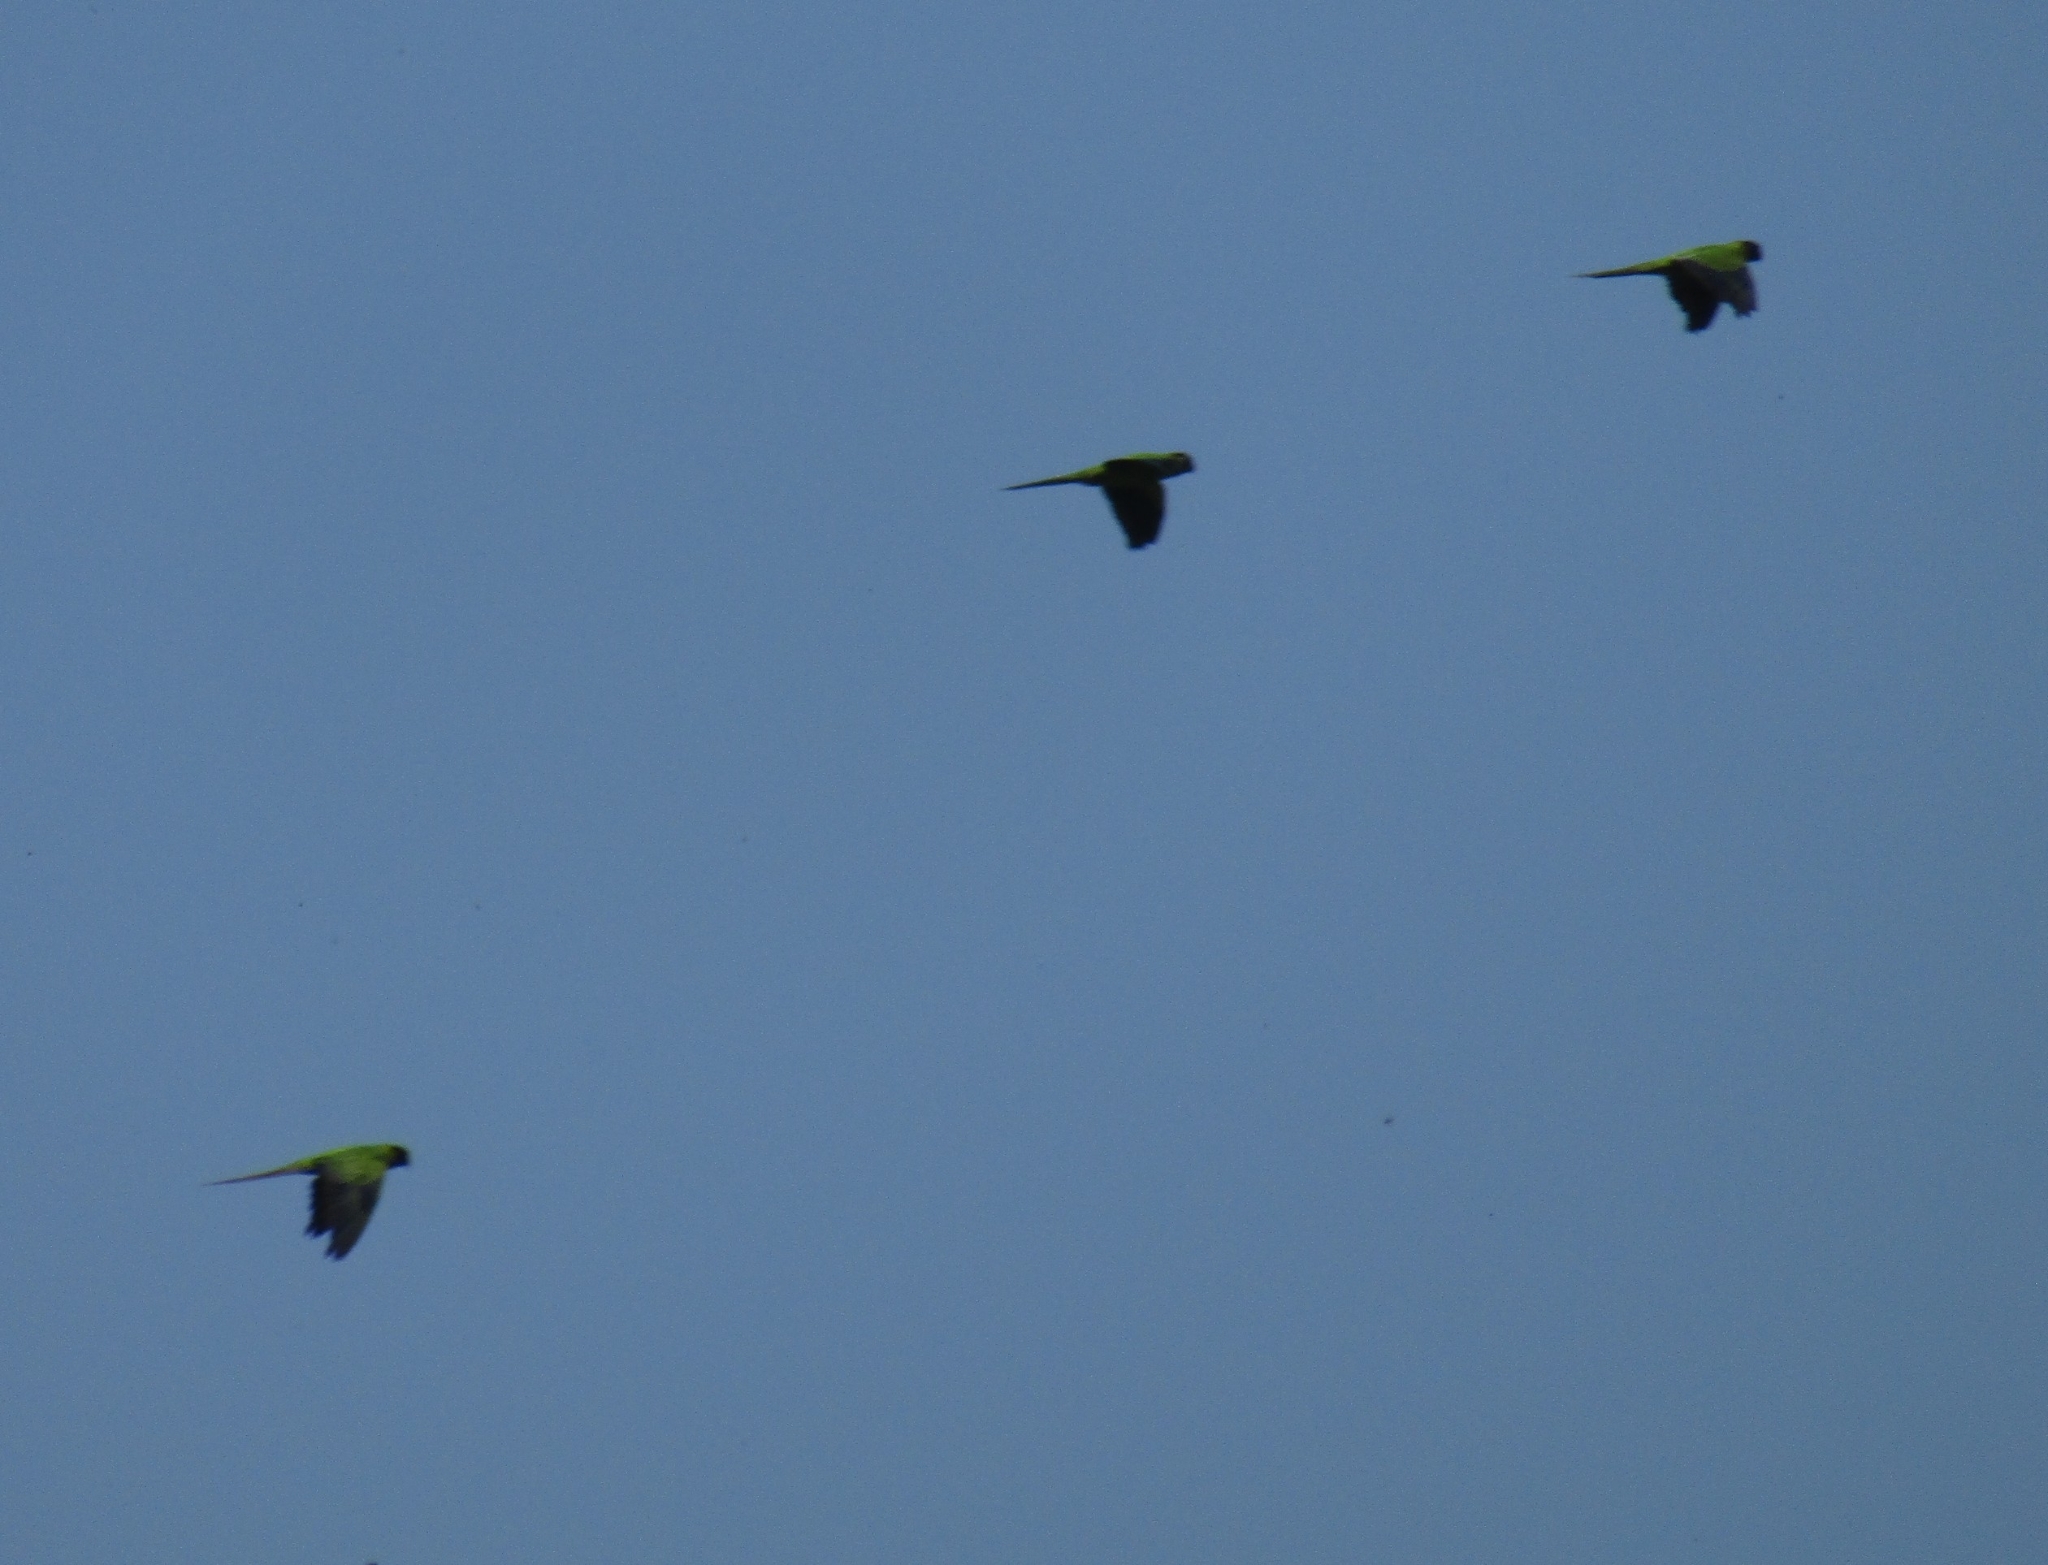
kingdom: Animalia
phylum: Chordata
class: Aves
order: Psittaciformes
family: Psittacidae
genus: Nandayus
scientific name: Nandayus nenday
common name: Nanday parakeet
